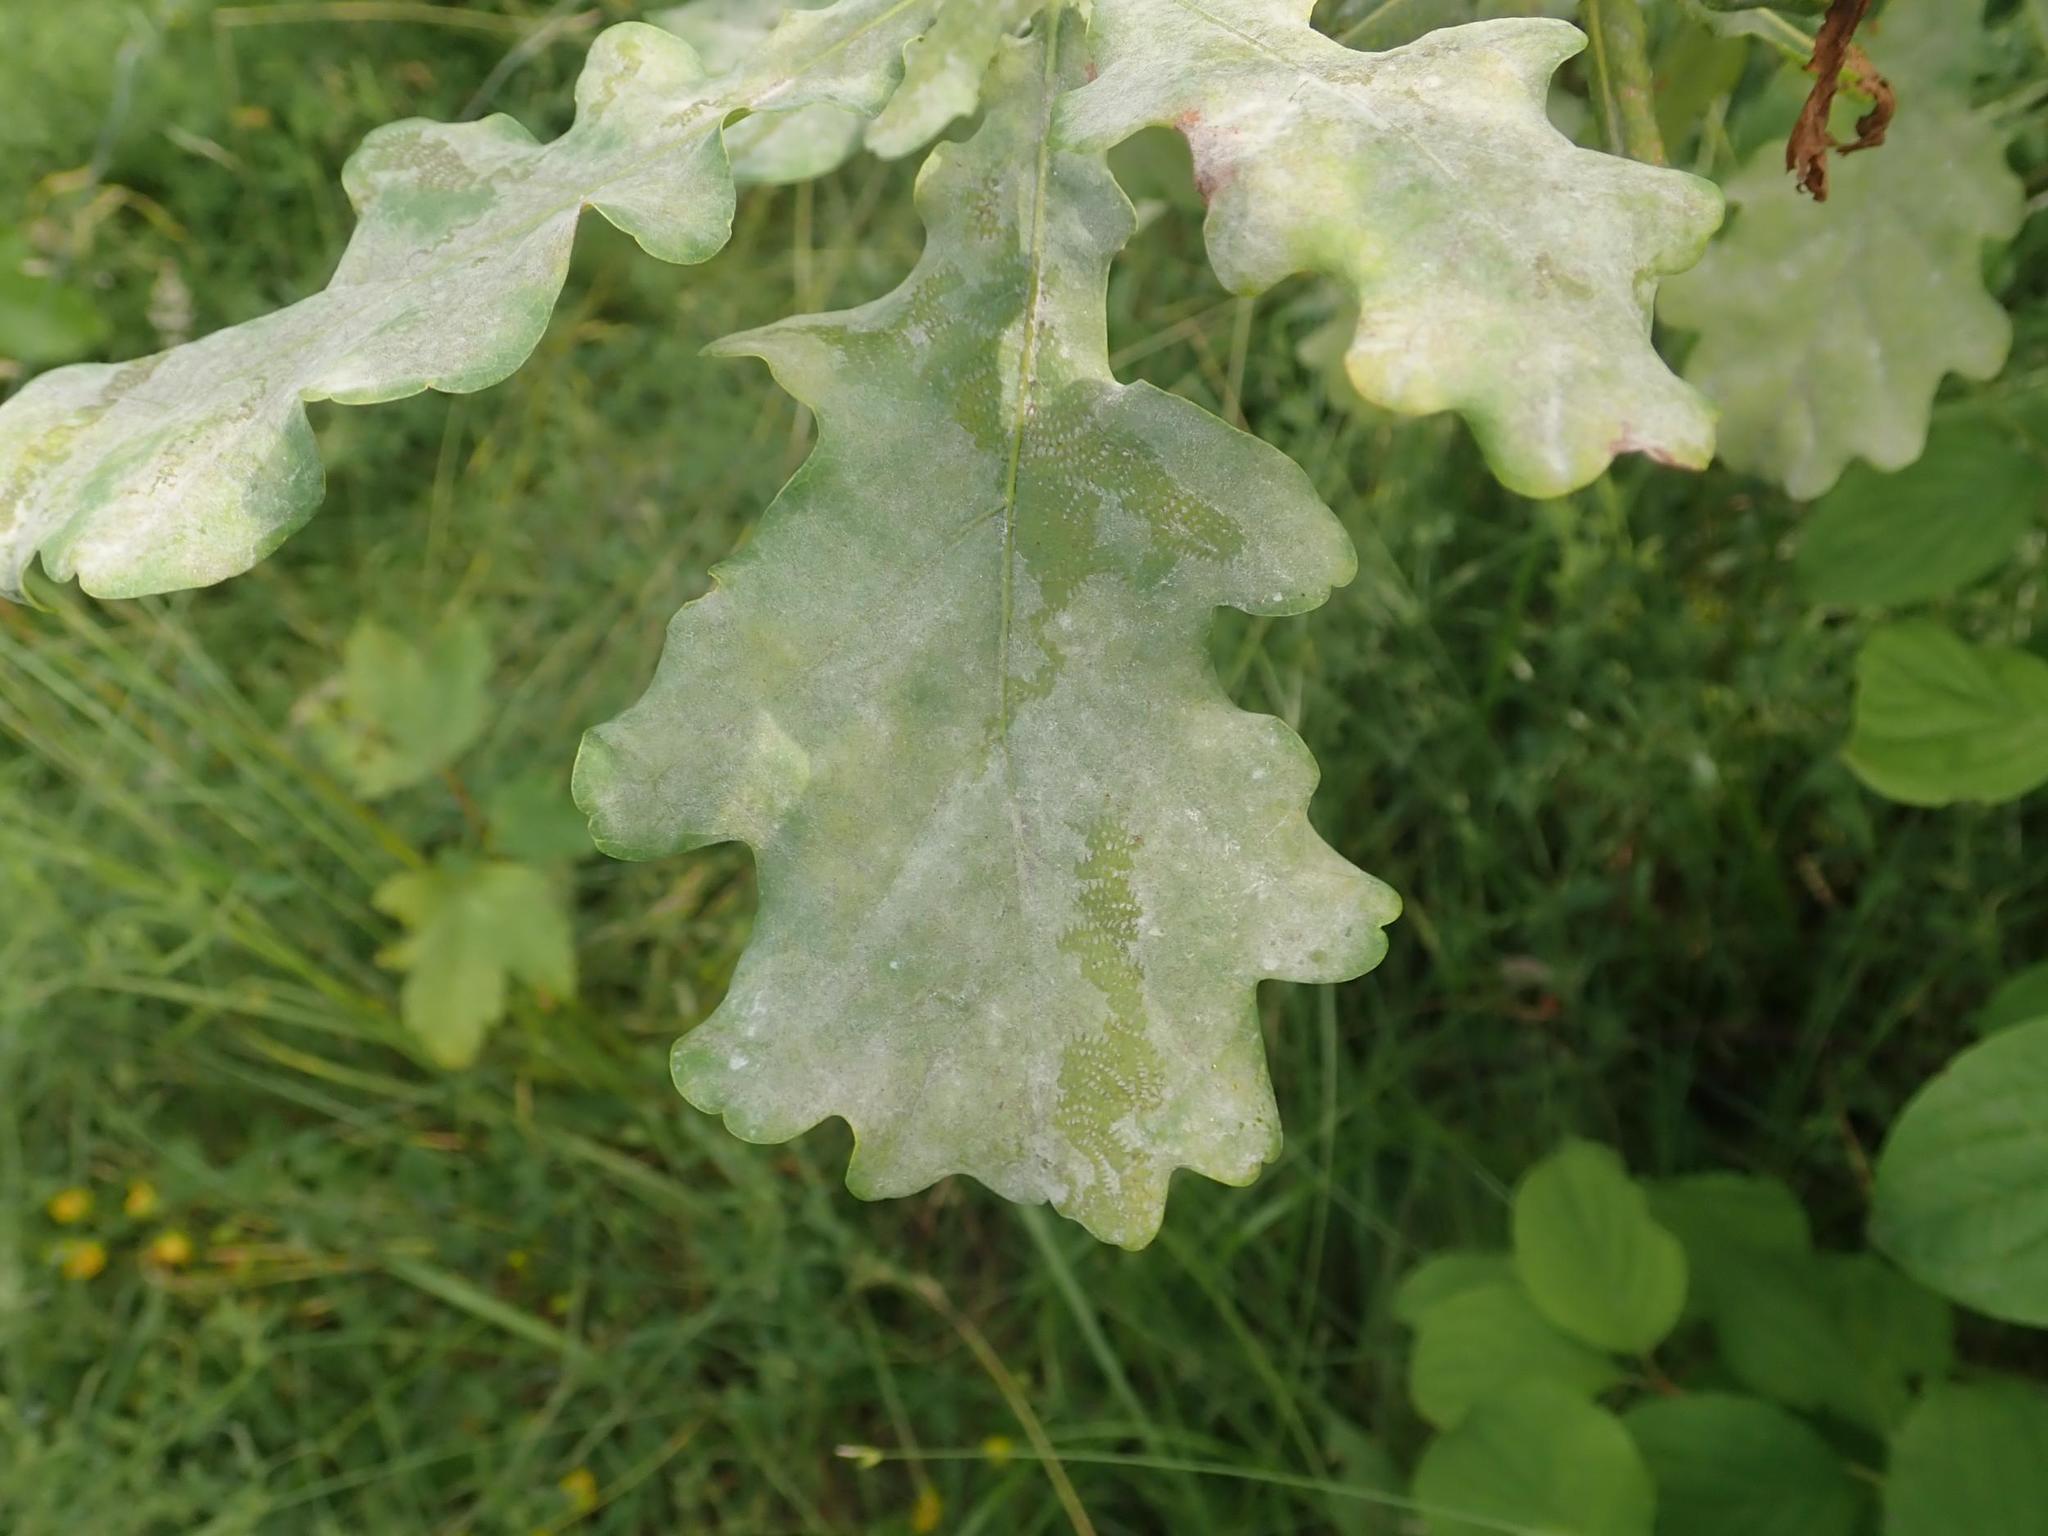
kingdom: Plantae
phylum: Tracheophyta
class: Magnoliopsida
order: Fagales
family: Fagaceae
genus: Quercus
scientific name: Quercus robur
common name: Pedunculate oak
